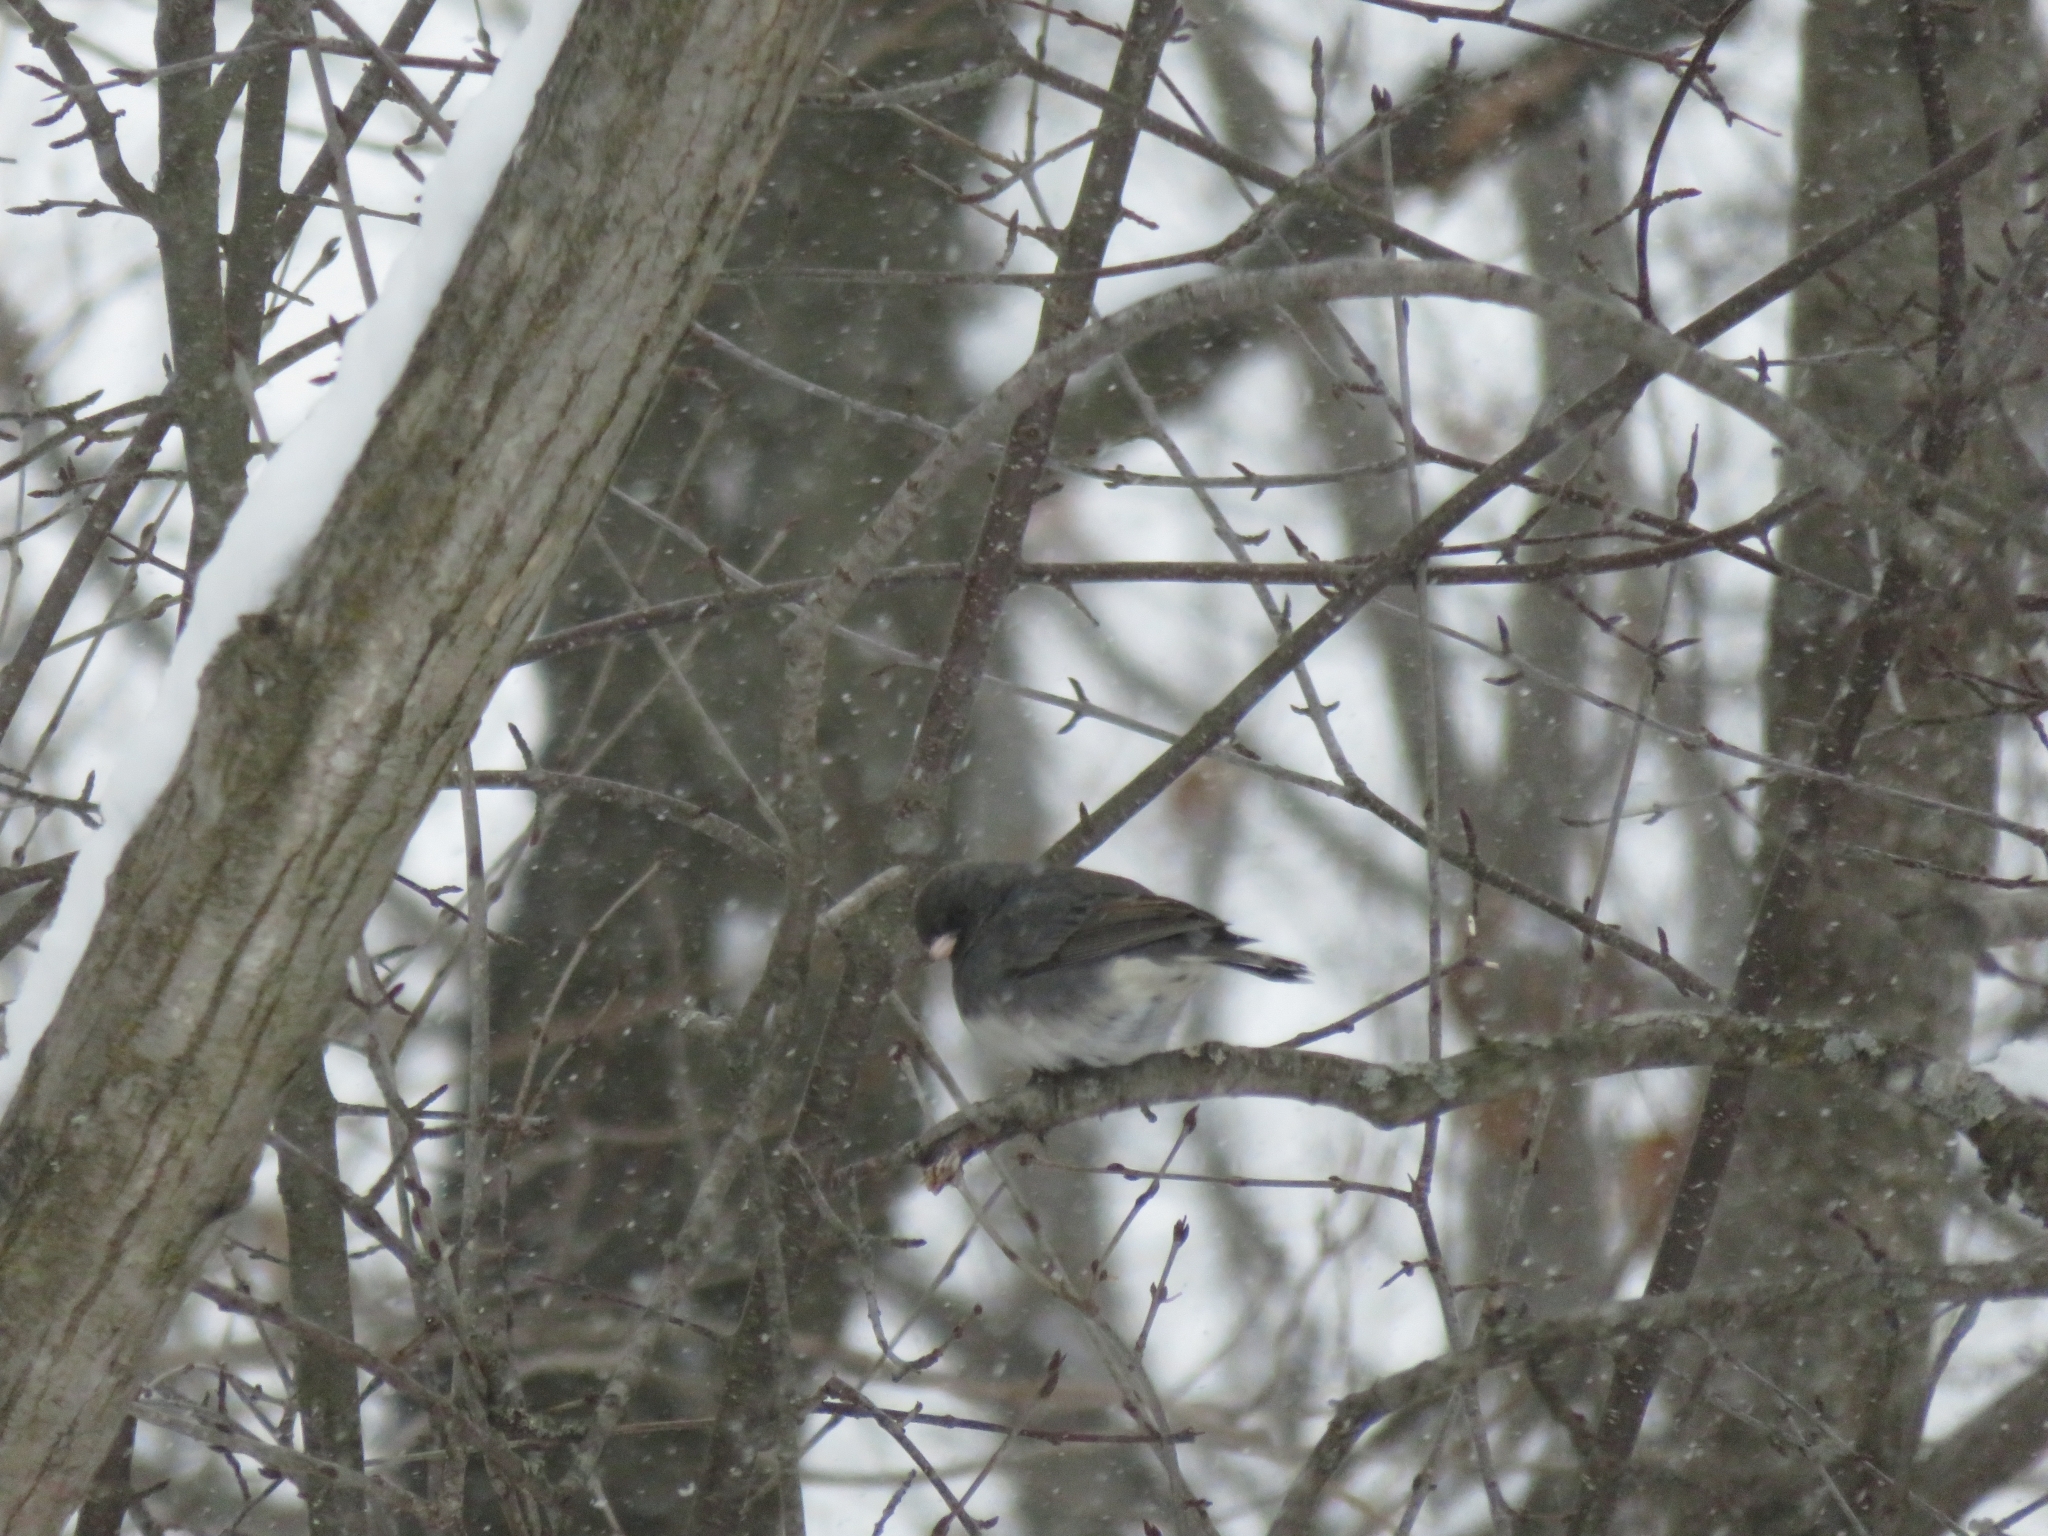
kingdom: Animalia
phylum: Chordata
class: Aves
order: Passeriformes
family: Passerellidae
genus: Junco
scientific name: Junco hyemalis
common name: Dark-eyed junco
